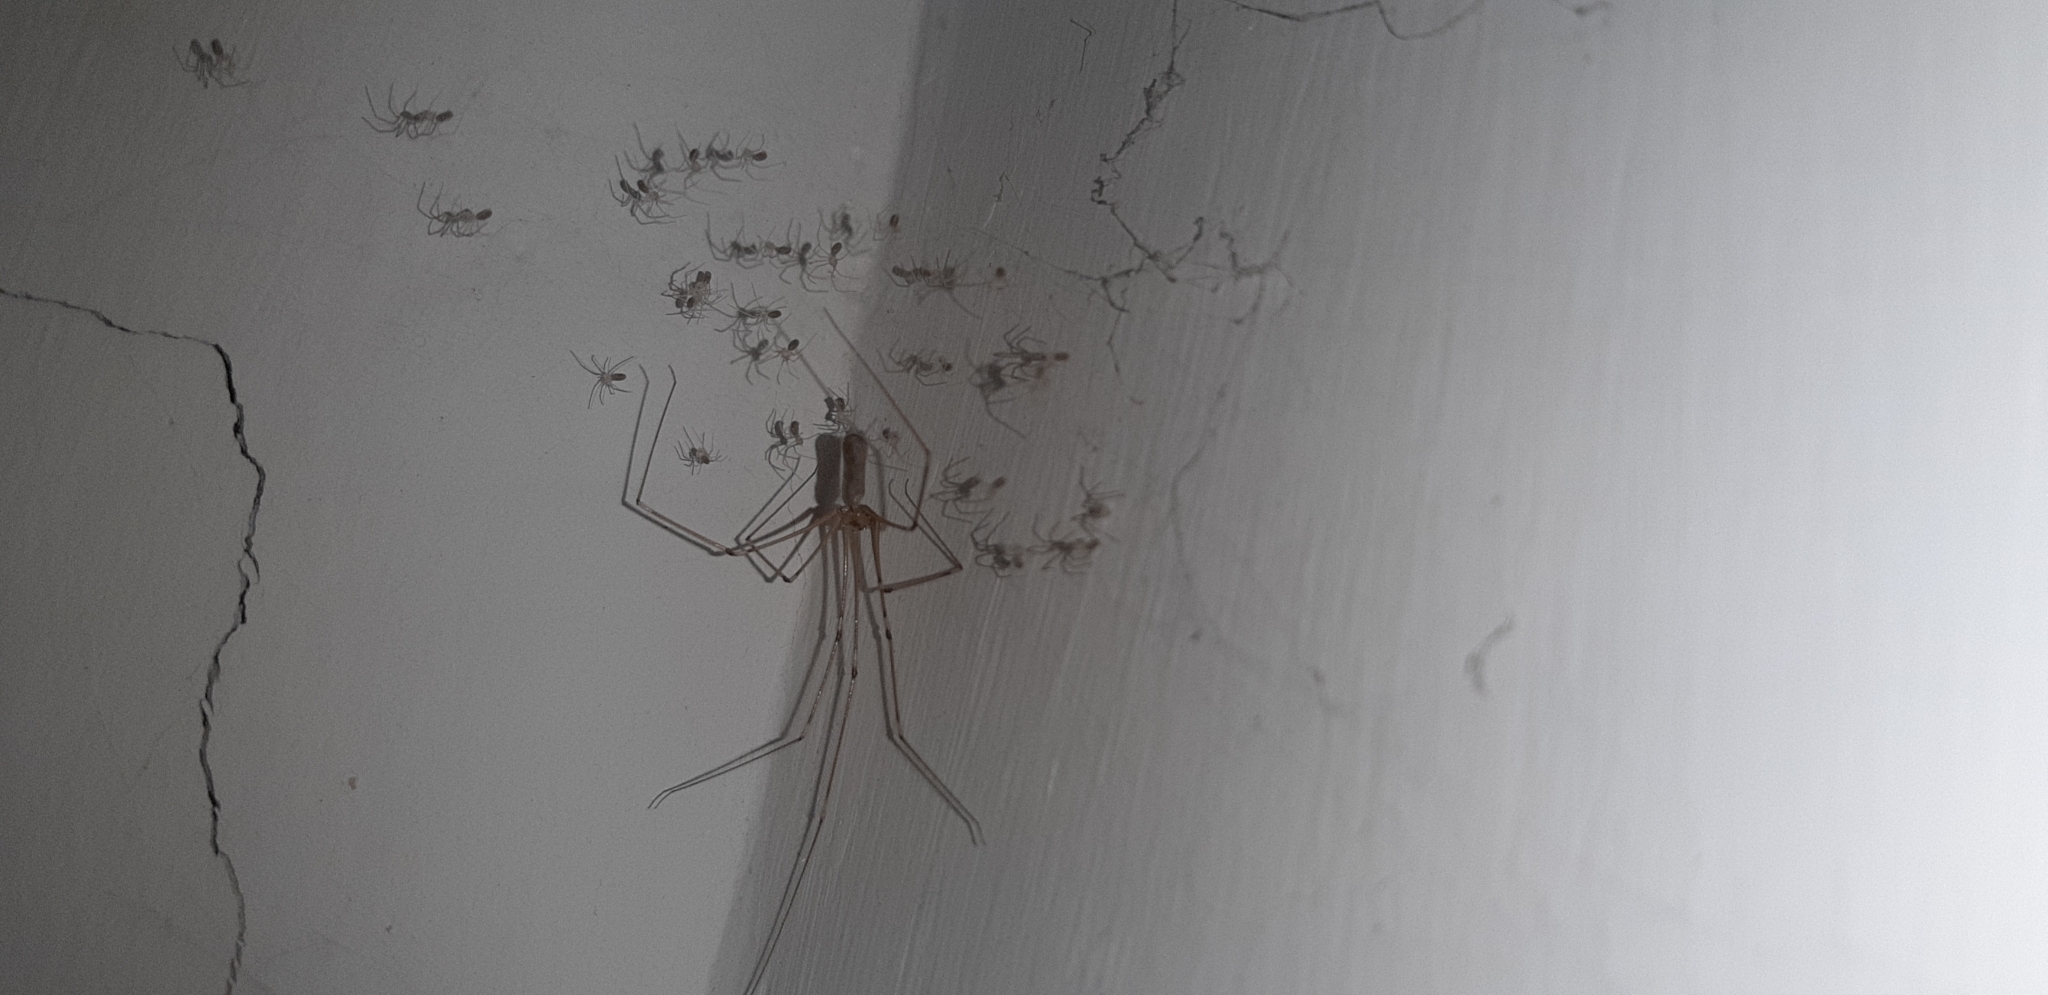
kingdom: Animalia
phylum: Arthropoda
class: Arachnida
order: Araneae
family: Pholcidae
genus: Pholcus
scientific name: Pholcus phalangioides
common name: Longbodied cellar spider
